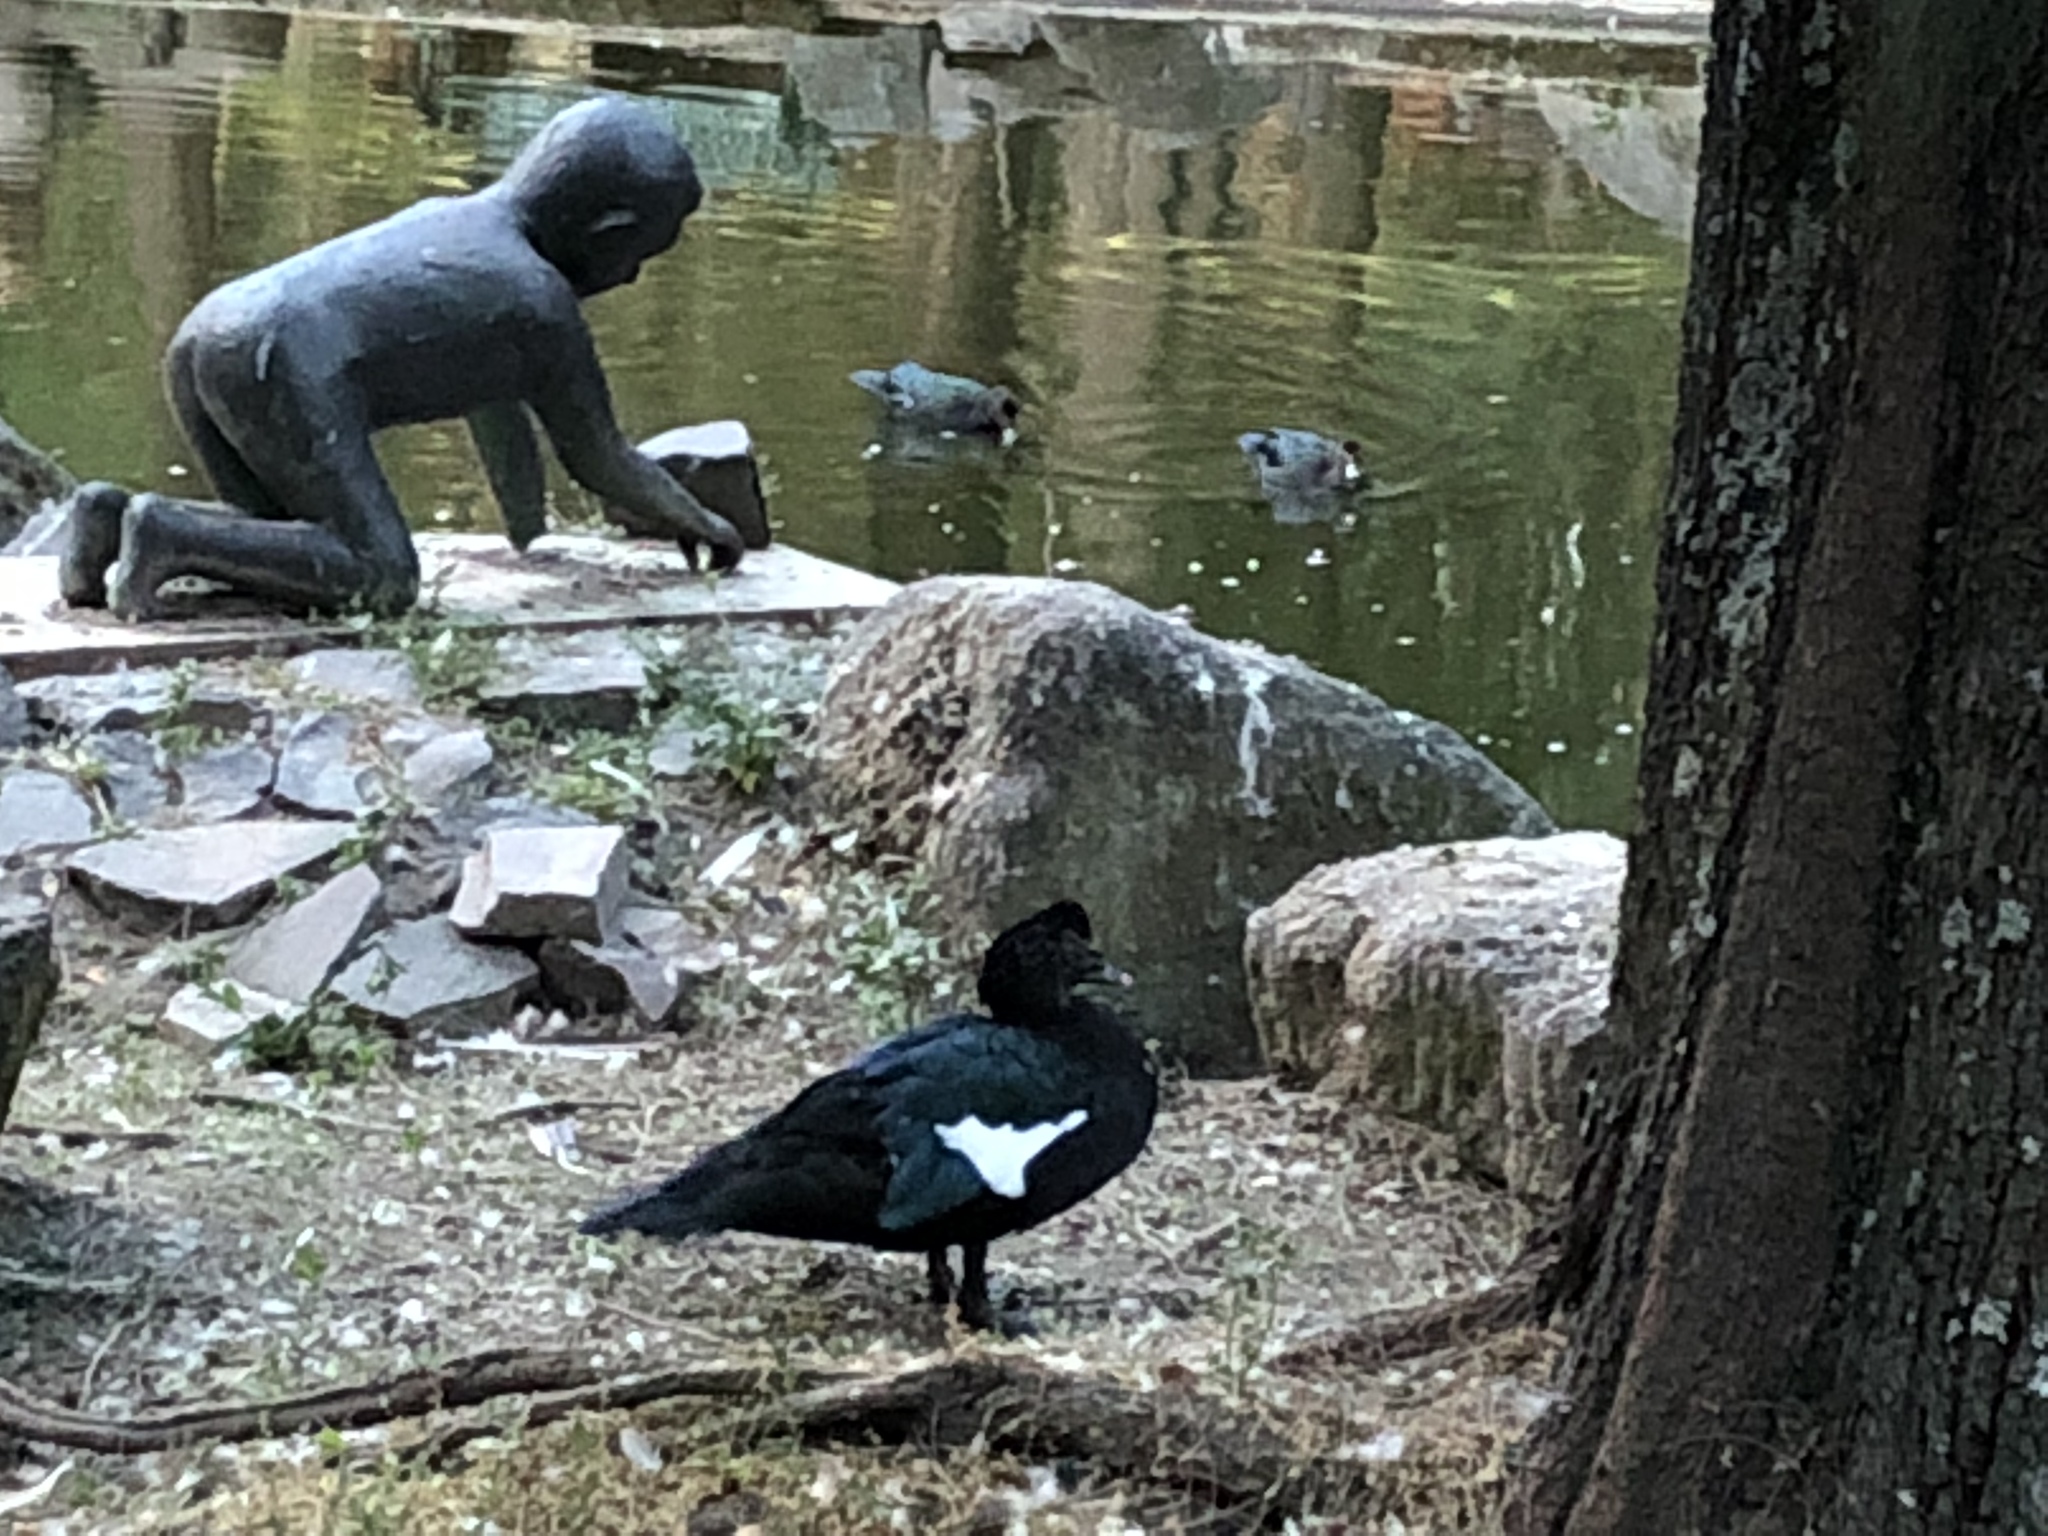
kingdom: Animalia
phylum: Chordata
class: Aves
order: Anseriformes
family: Anatidae
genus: Cairina
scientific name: Cairina moschata
